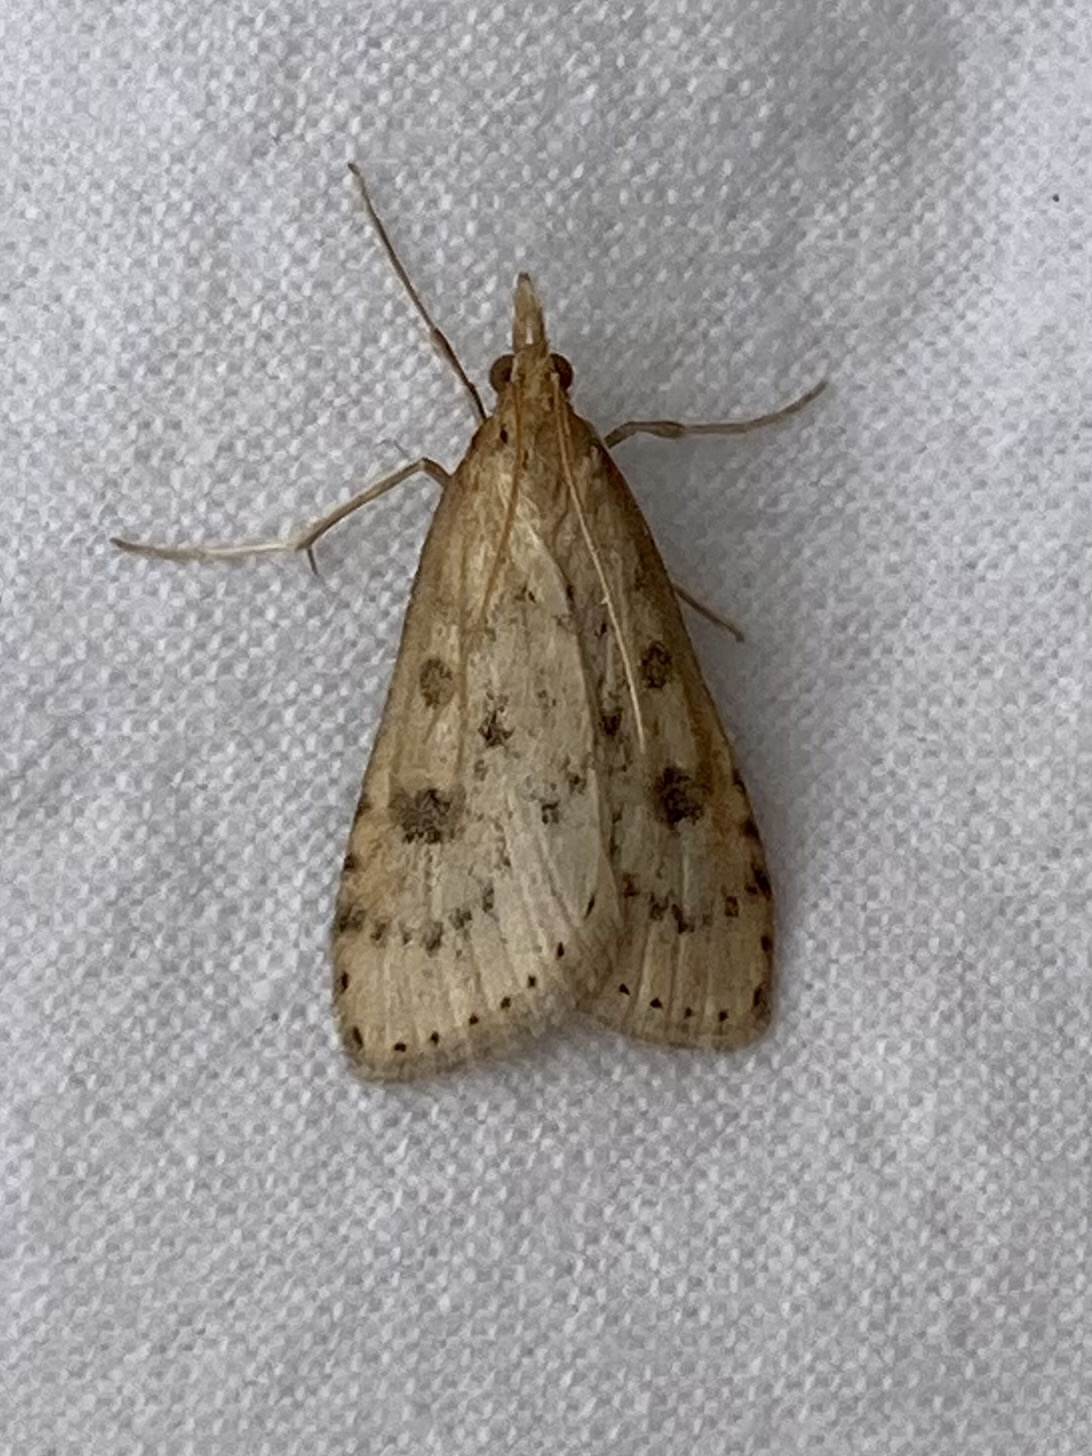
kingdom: Animalia
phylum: Arthropoda
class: Insecta
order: Lepidoptera
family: Crambidae
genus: Udea
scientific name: Udea numeralis
